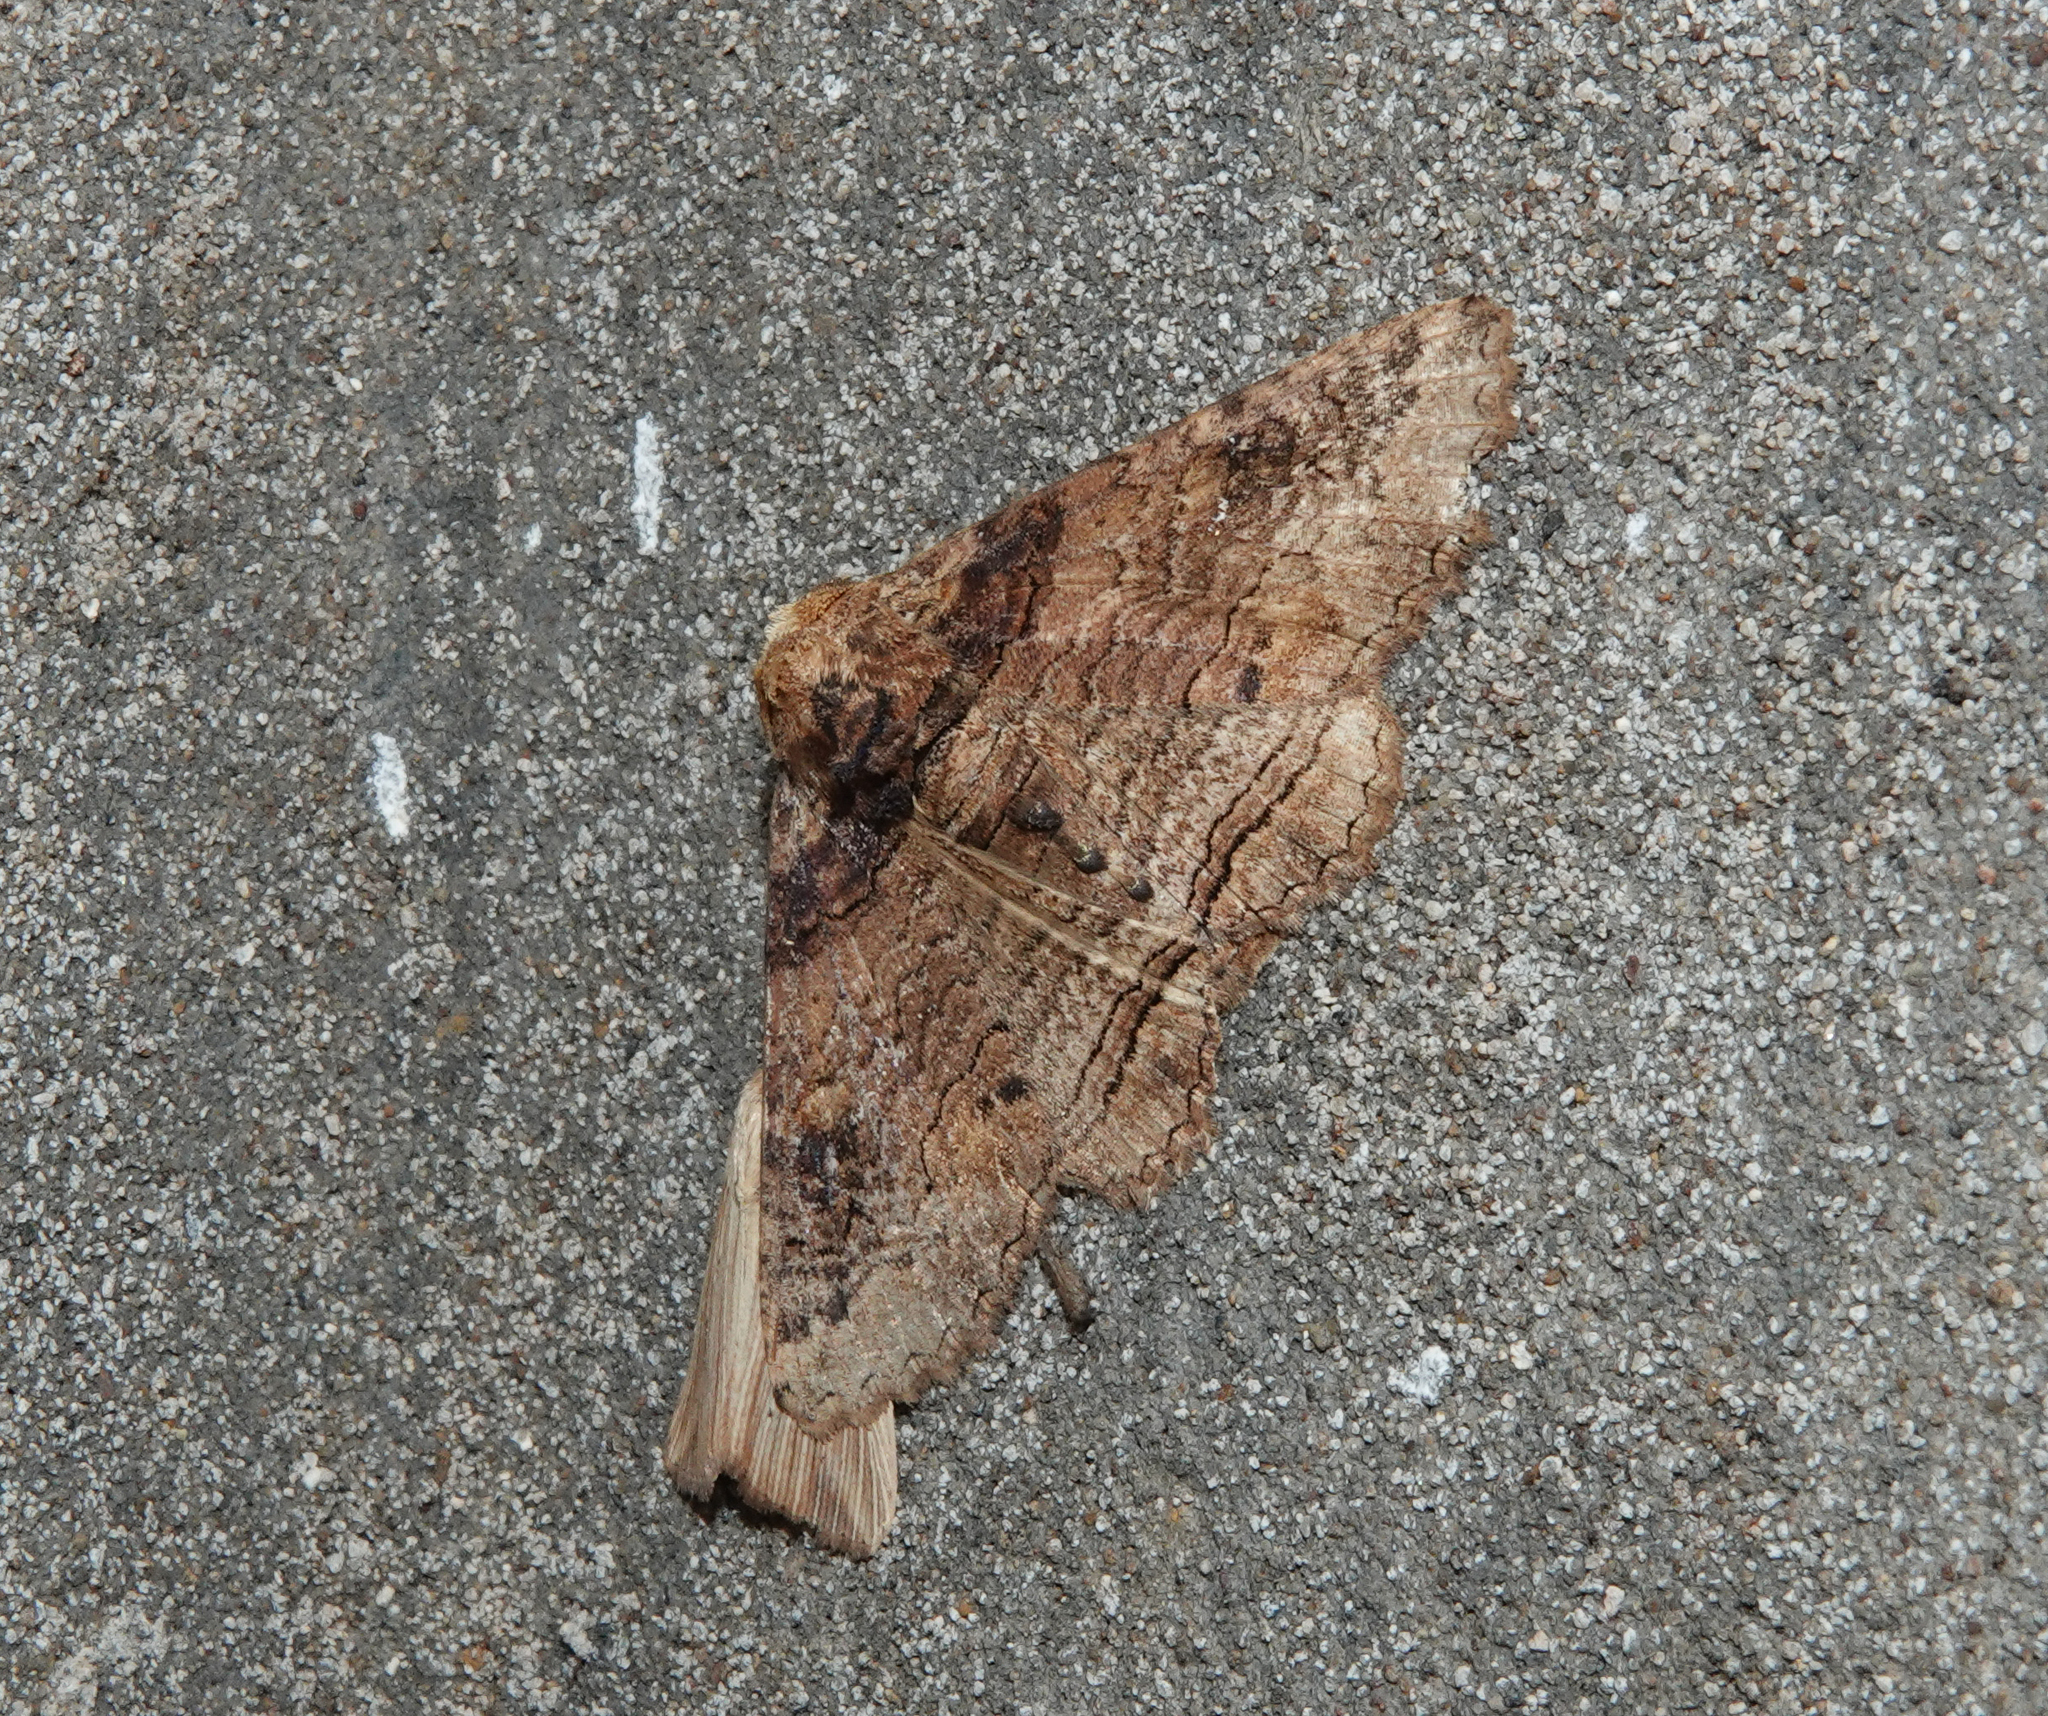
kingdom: Animalia
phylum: Arthropoda
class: Insecta
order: Lepidoptera
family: Erebidae
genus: Pericyma
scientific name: Pericyma cruegeri
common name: Poinciana looper
